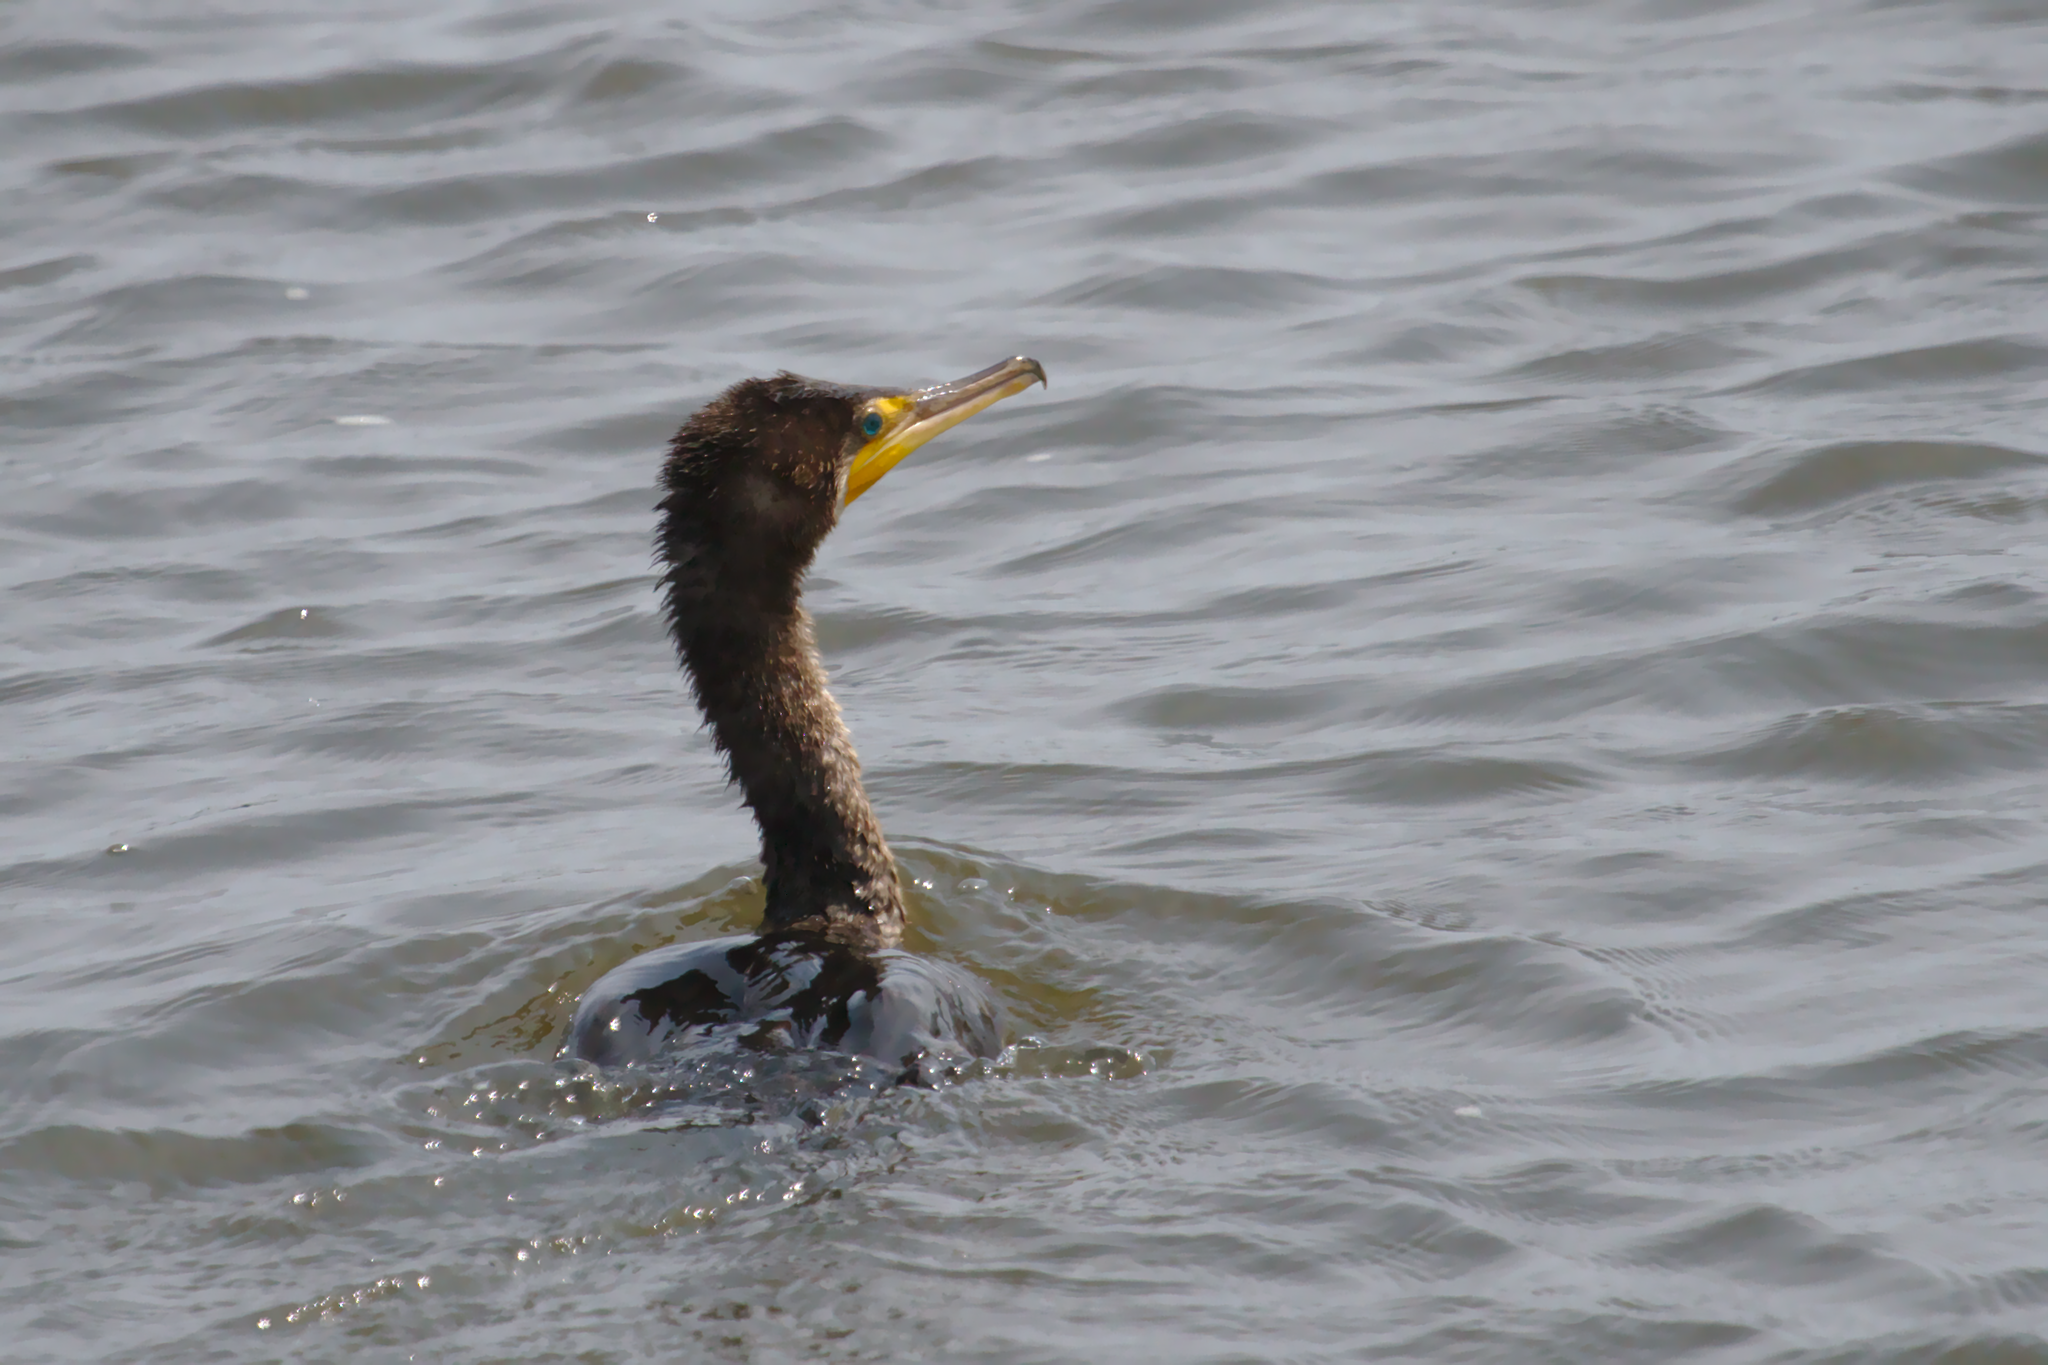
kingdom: Animalia
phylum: Chordata
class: Aves
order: Suliformes
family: Phalacrocoracidae
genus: Phalacrocorax
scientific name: Phalacrocorax auritus
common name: Double-crested cormorant
